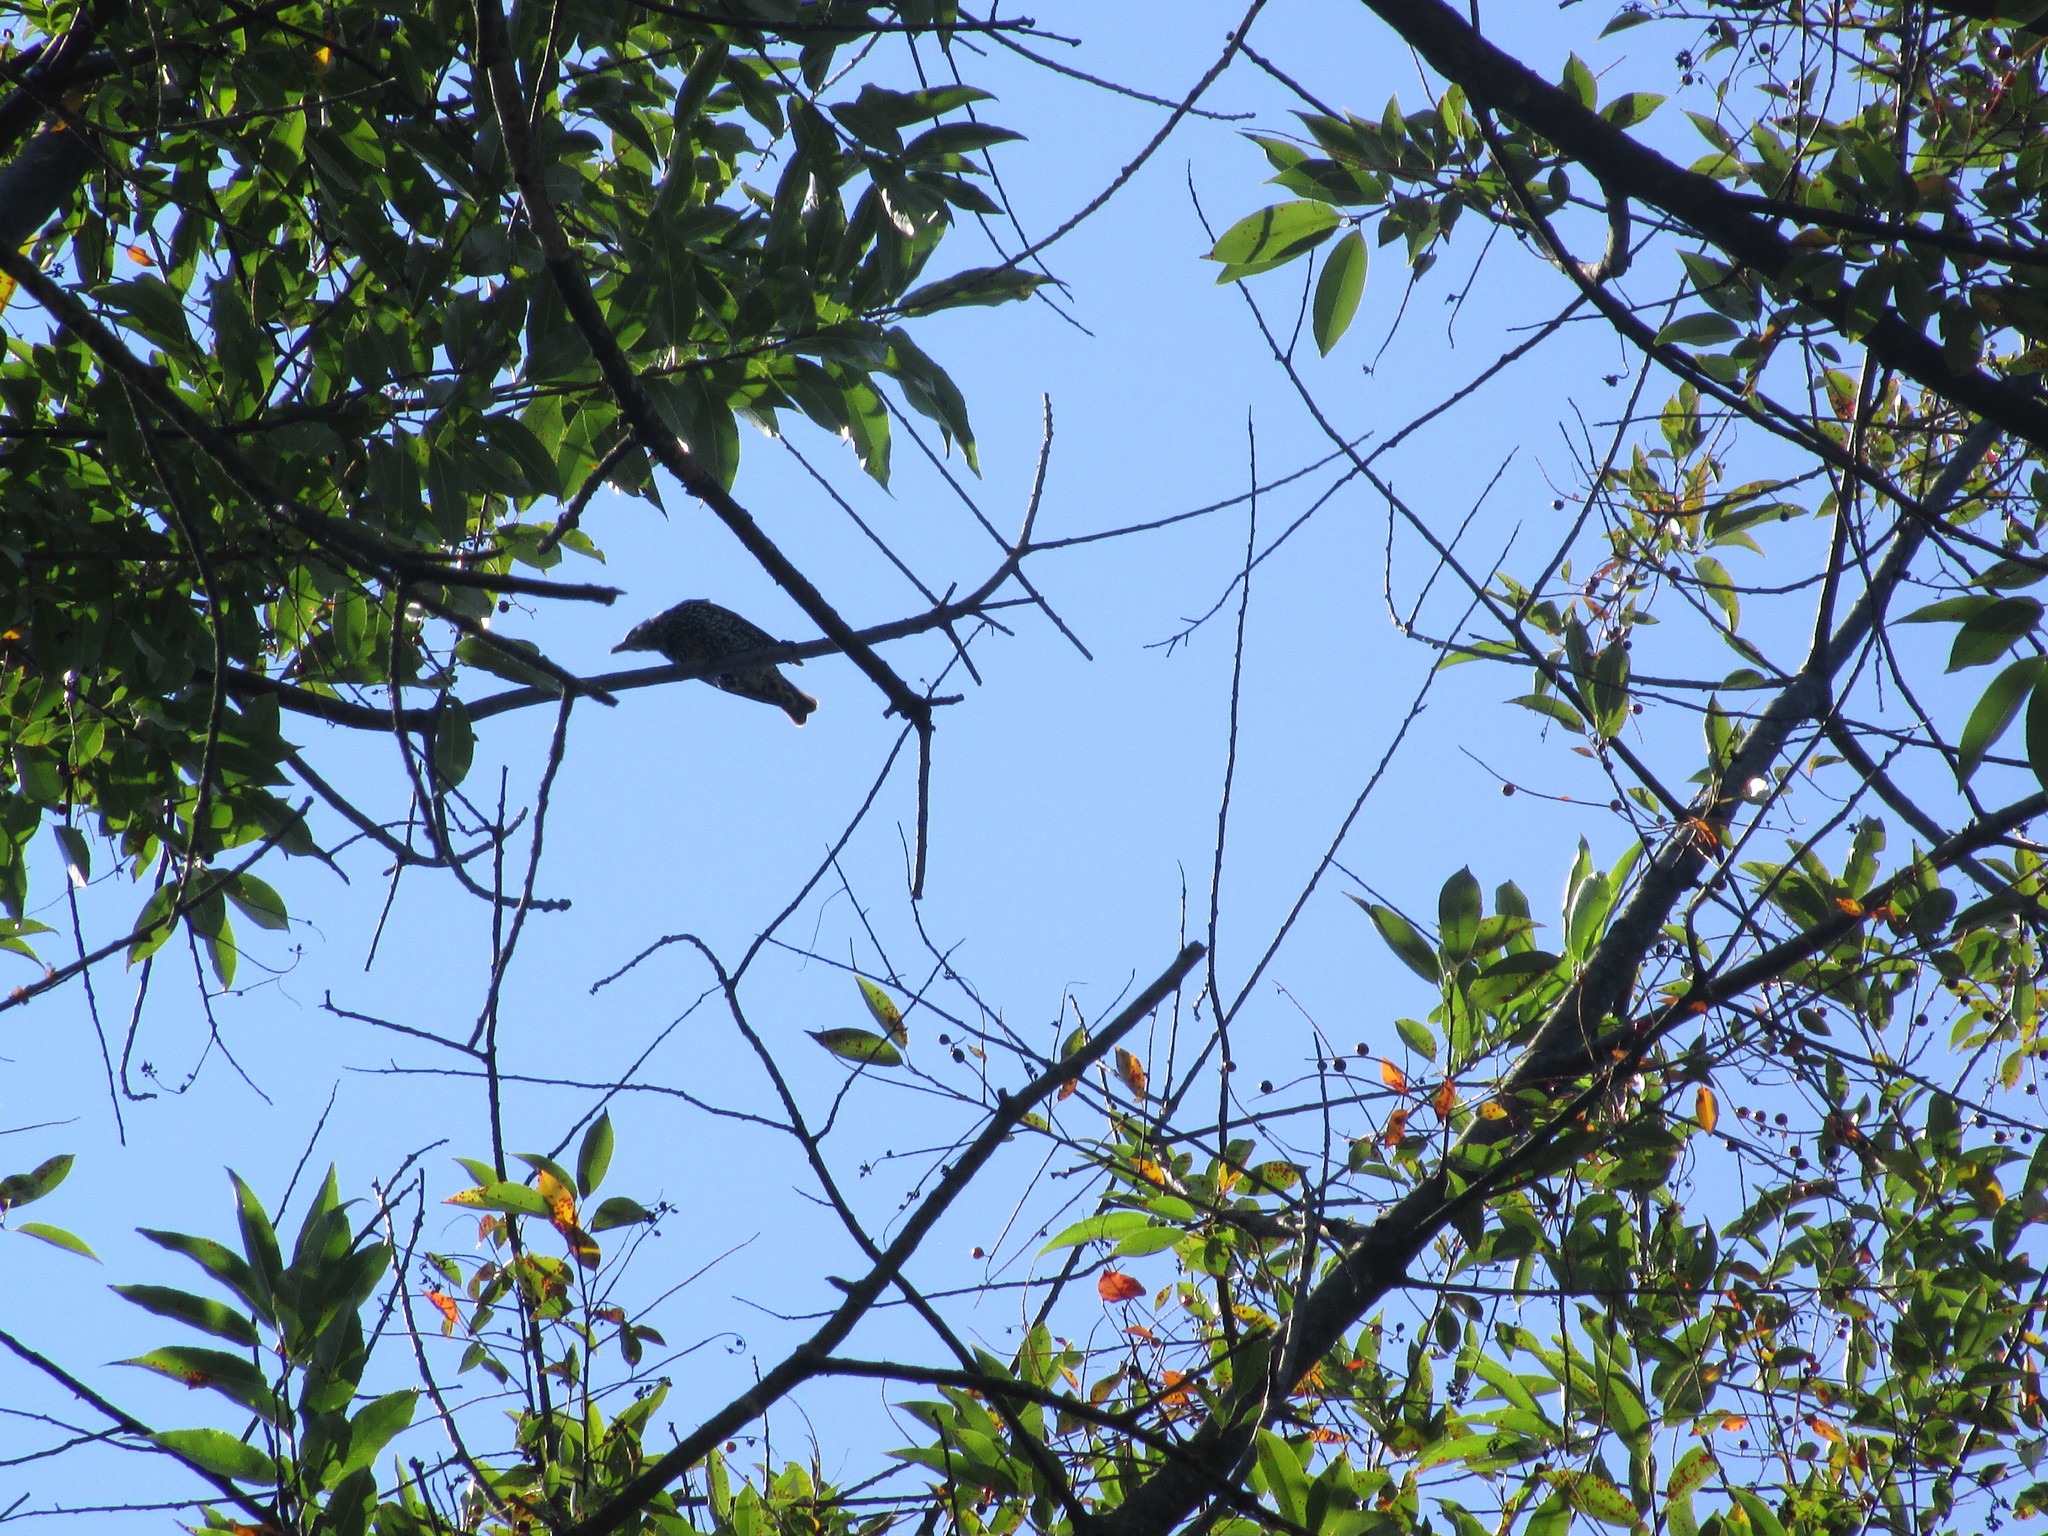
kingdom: Animalia
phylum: Chordata
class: Aves
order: Passeriformes
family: Sturnidae
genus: Sturnus
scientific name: Sturnus vulgaris
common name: Common starling
